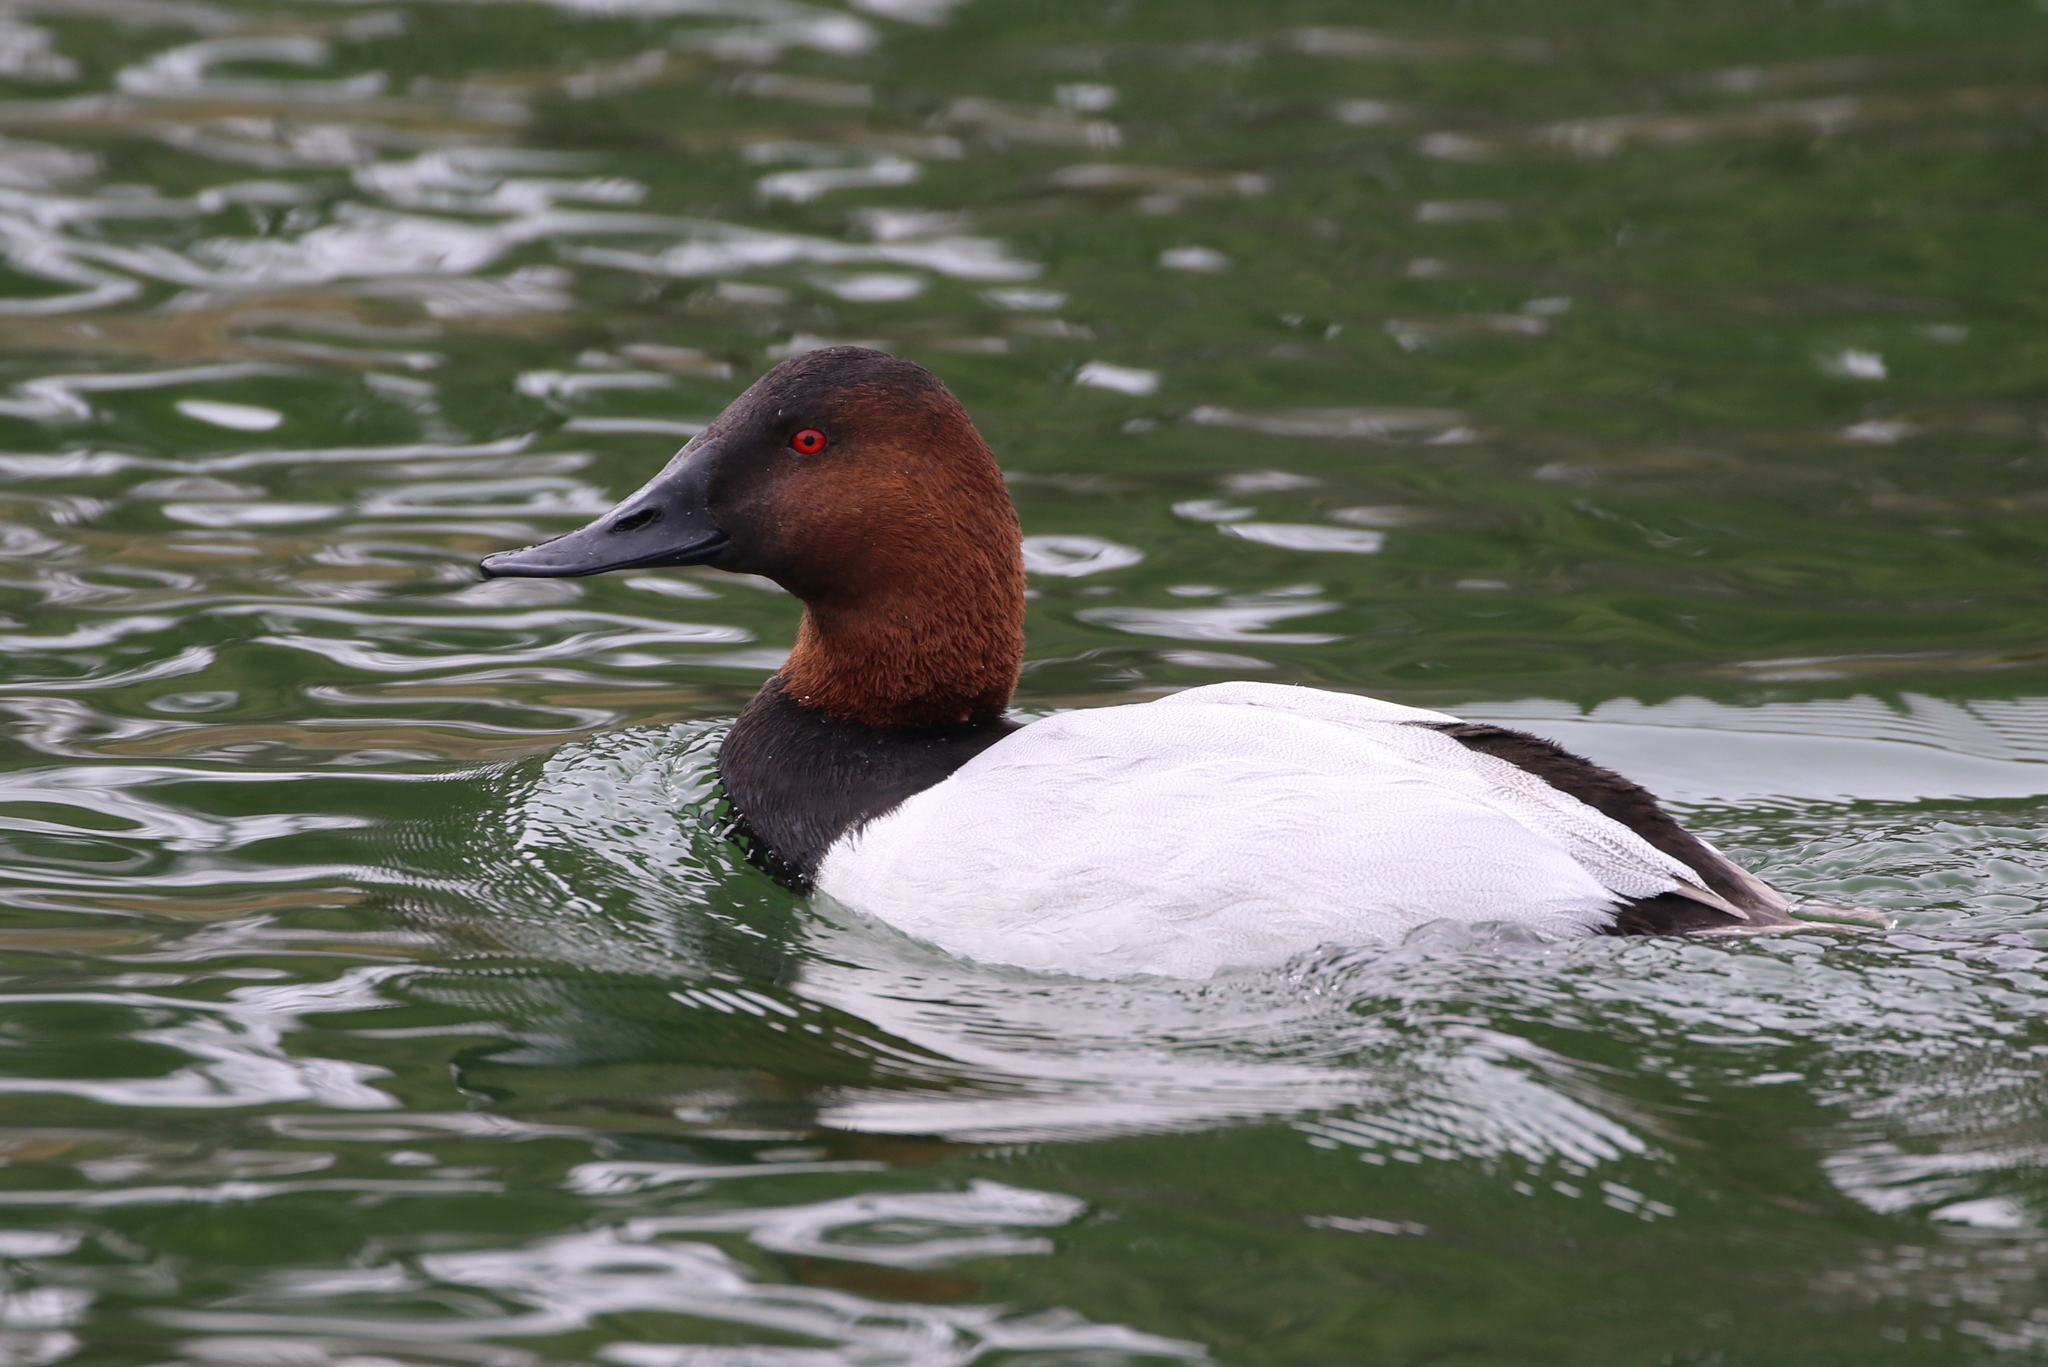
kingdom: Animalia
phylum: Chordata
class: Aves
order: Anseriformes
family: Anatidae
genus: Aythya
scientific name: Aythya valisineria
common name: Canvasback
